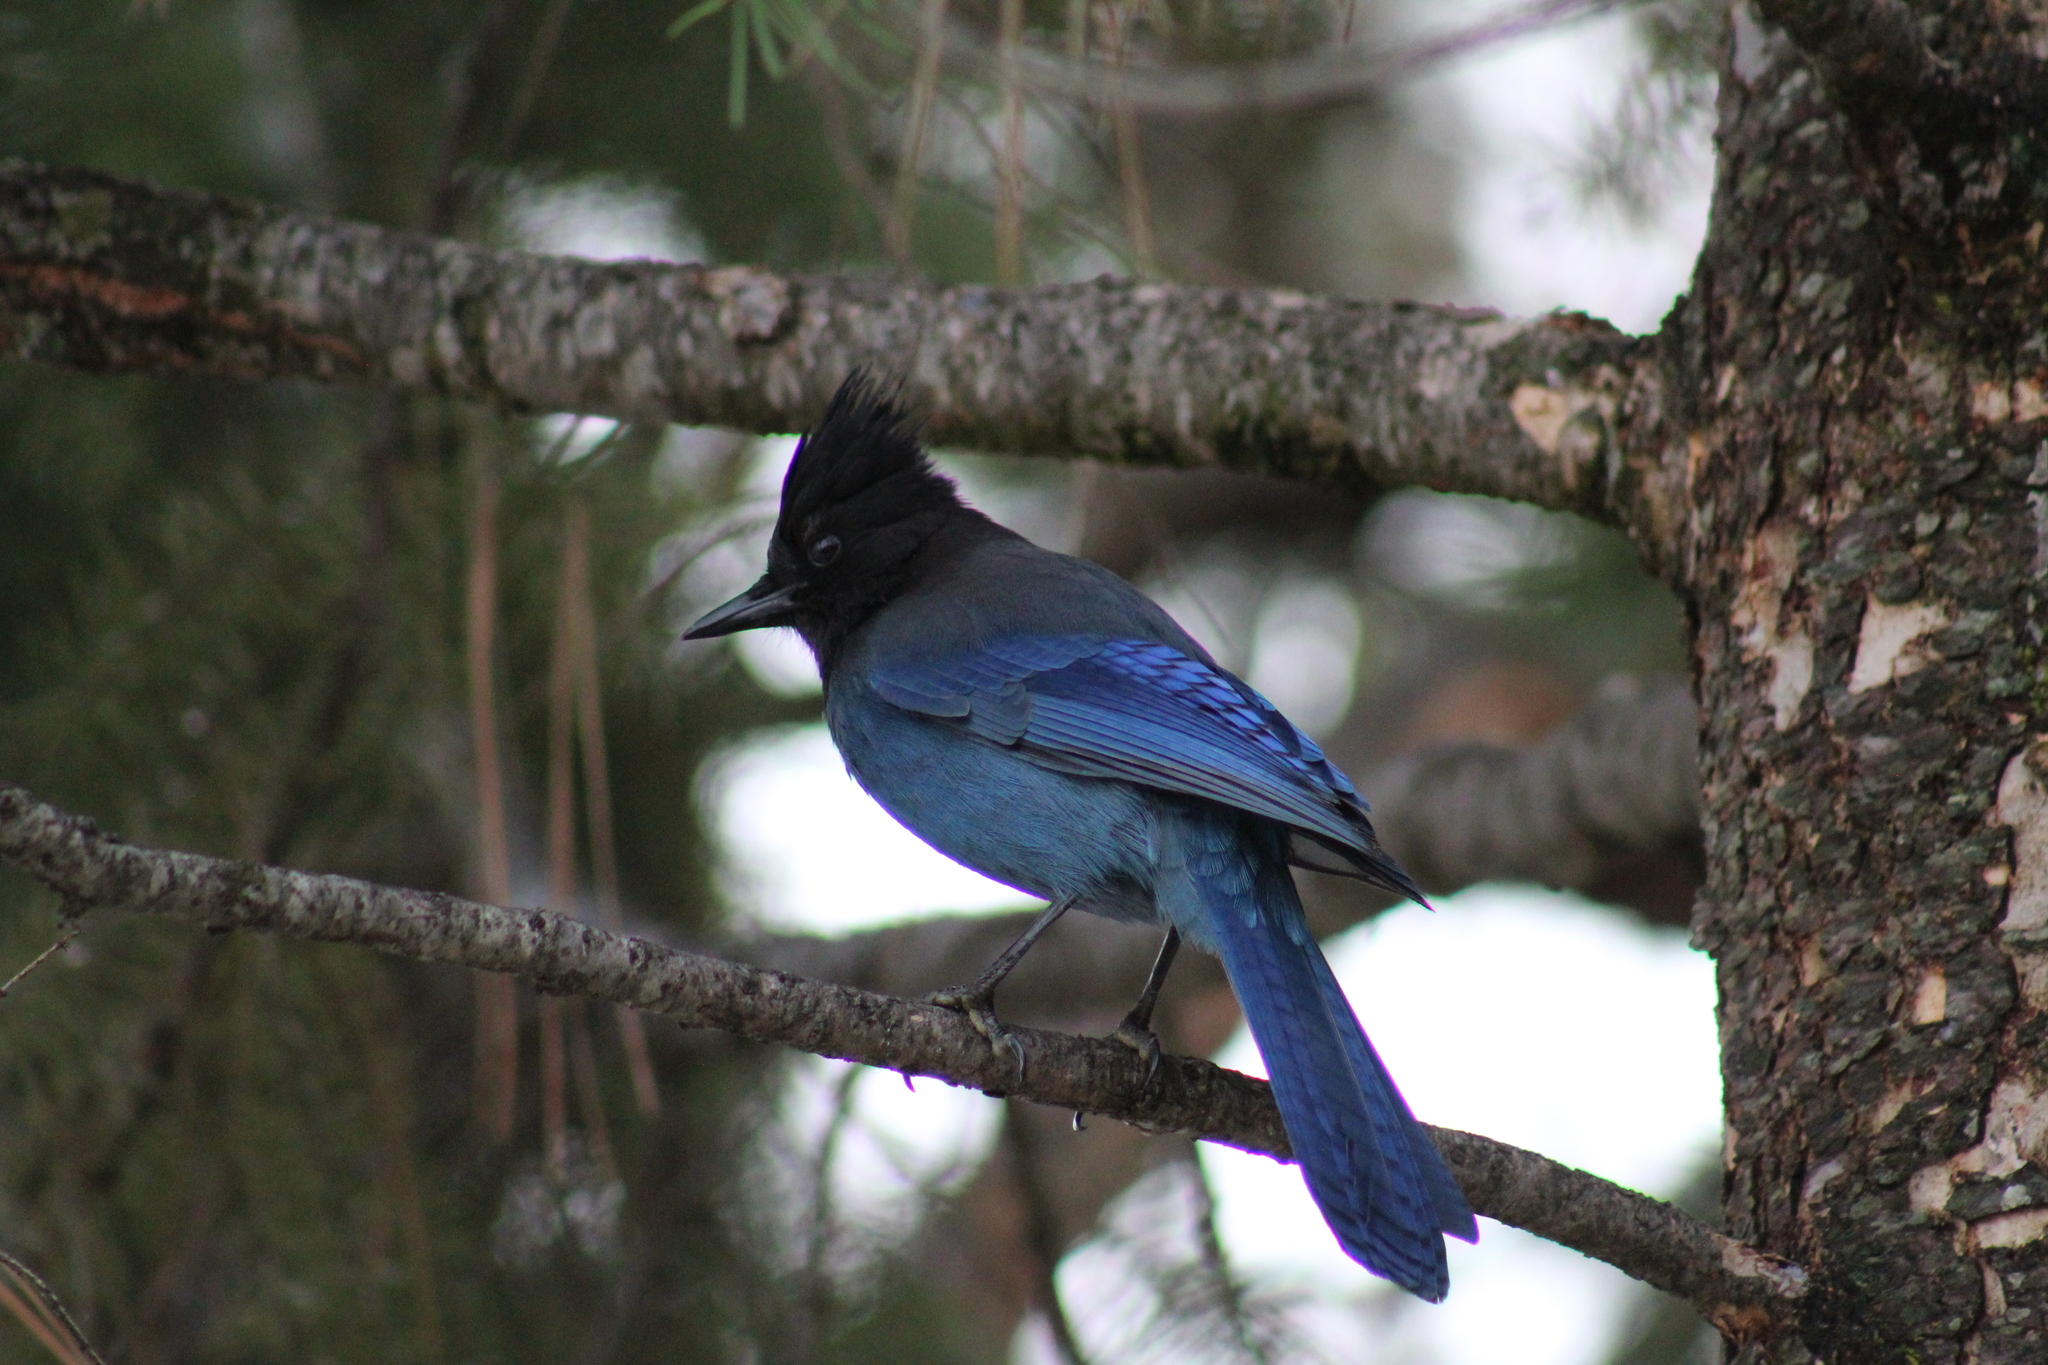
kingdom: Animalia
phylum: Chordata
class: Aves
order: Passeriformes
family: Corvidae
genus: Cyanocitta
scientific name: Cyanocitta stelleri
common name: Steller's jay
